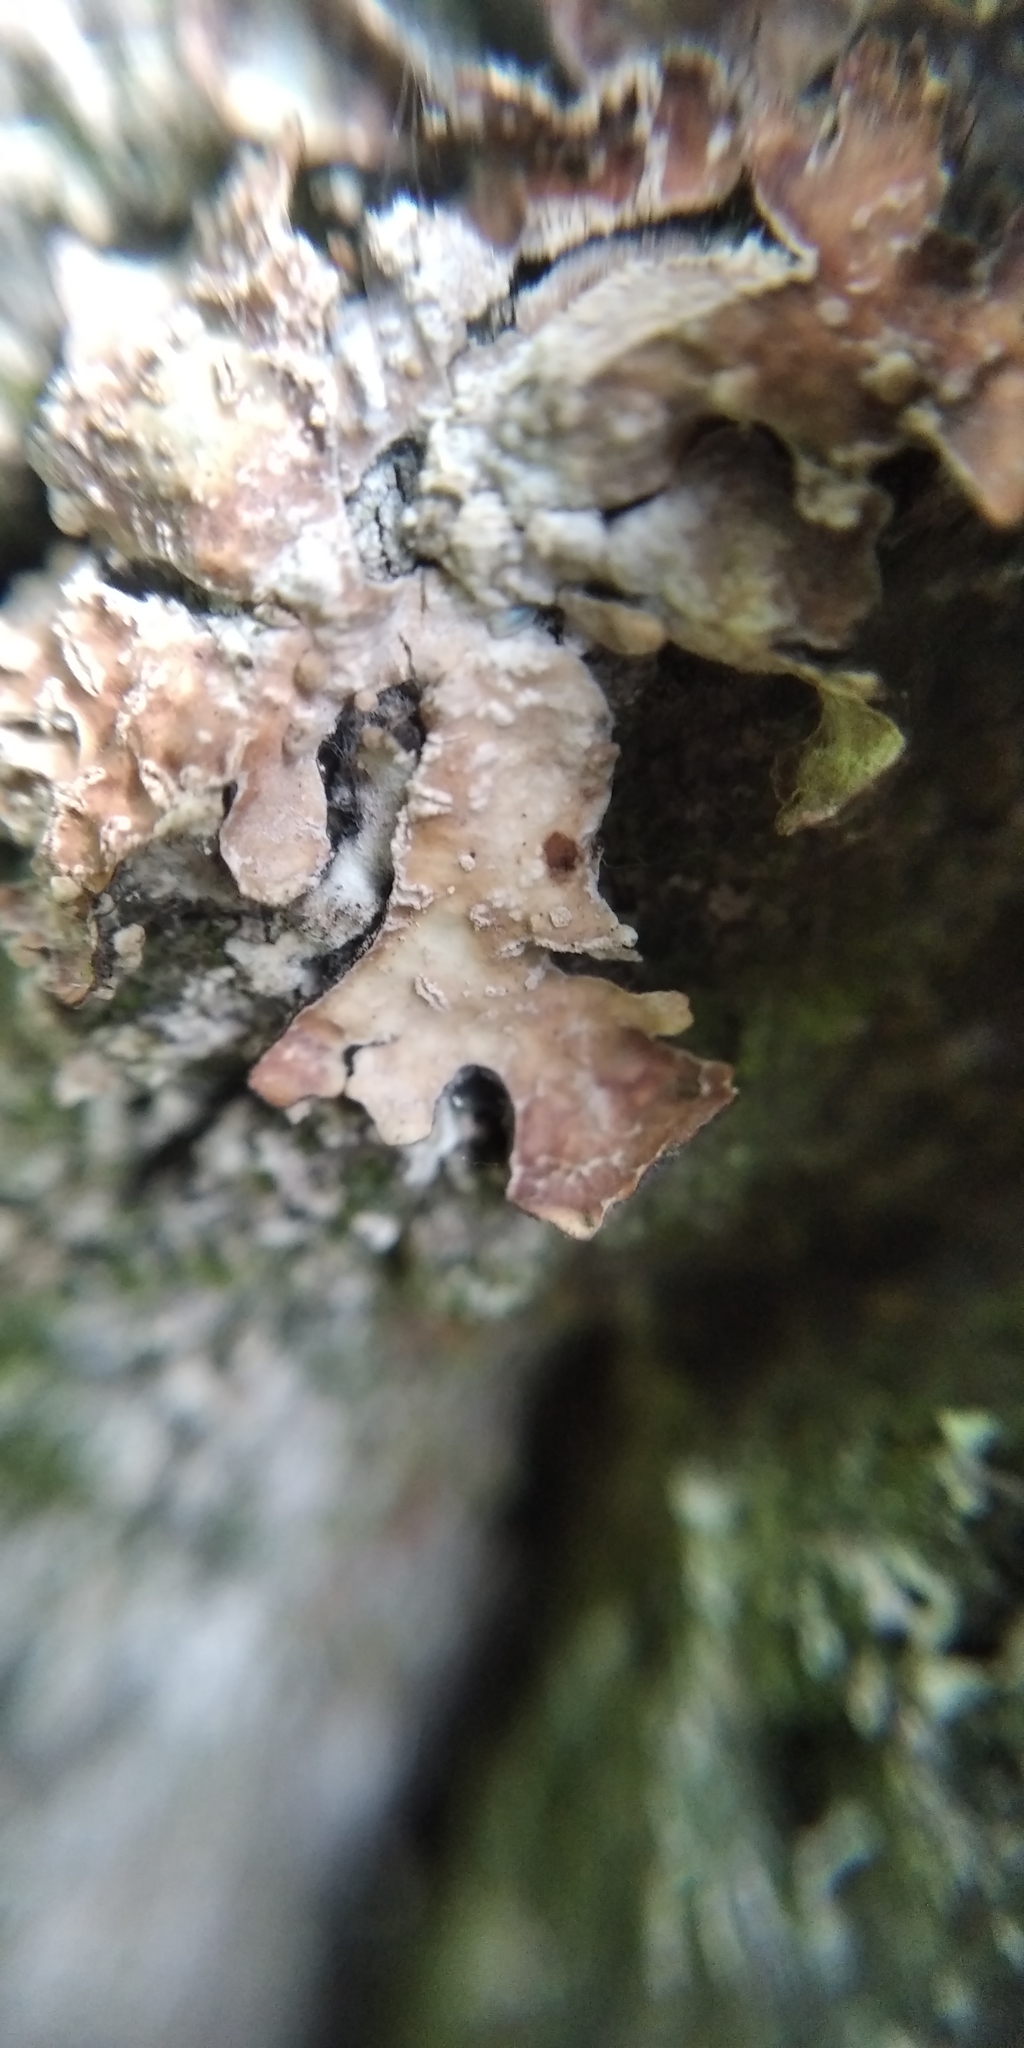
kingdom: Fungi
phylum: Ascomycota
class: Lecanoromycetes
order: Lecanorales
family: Parmeliaceae
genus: Parmelia
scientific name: Parmelia sulcata
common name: Netted shield lichen
